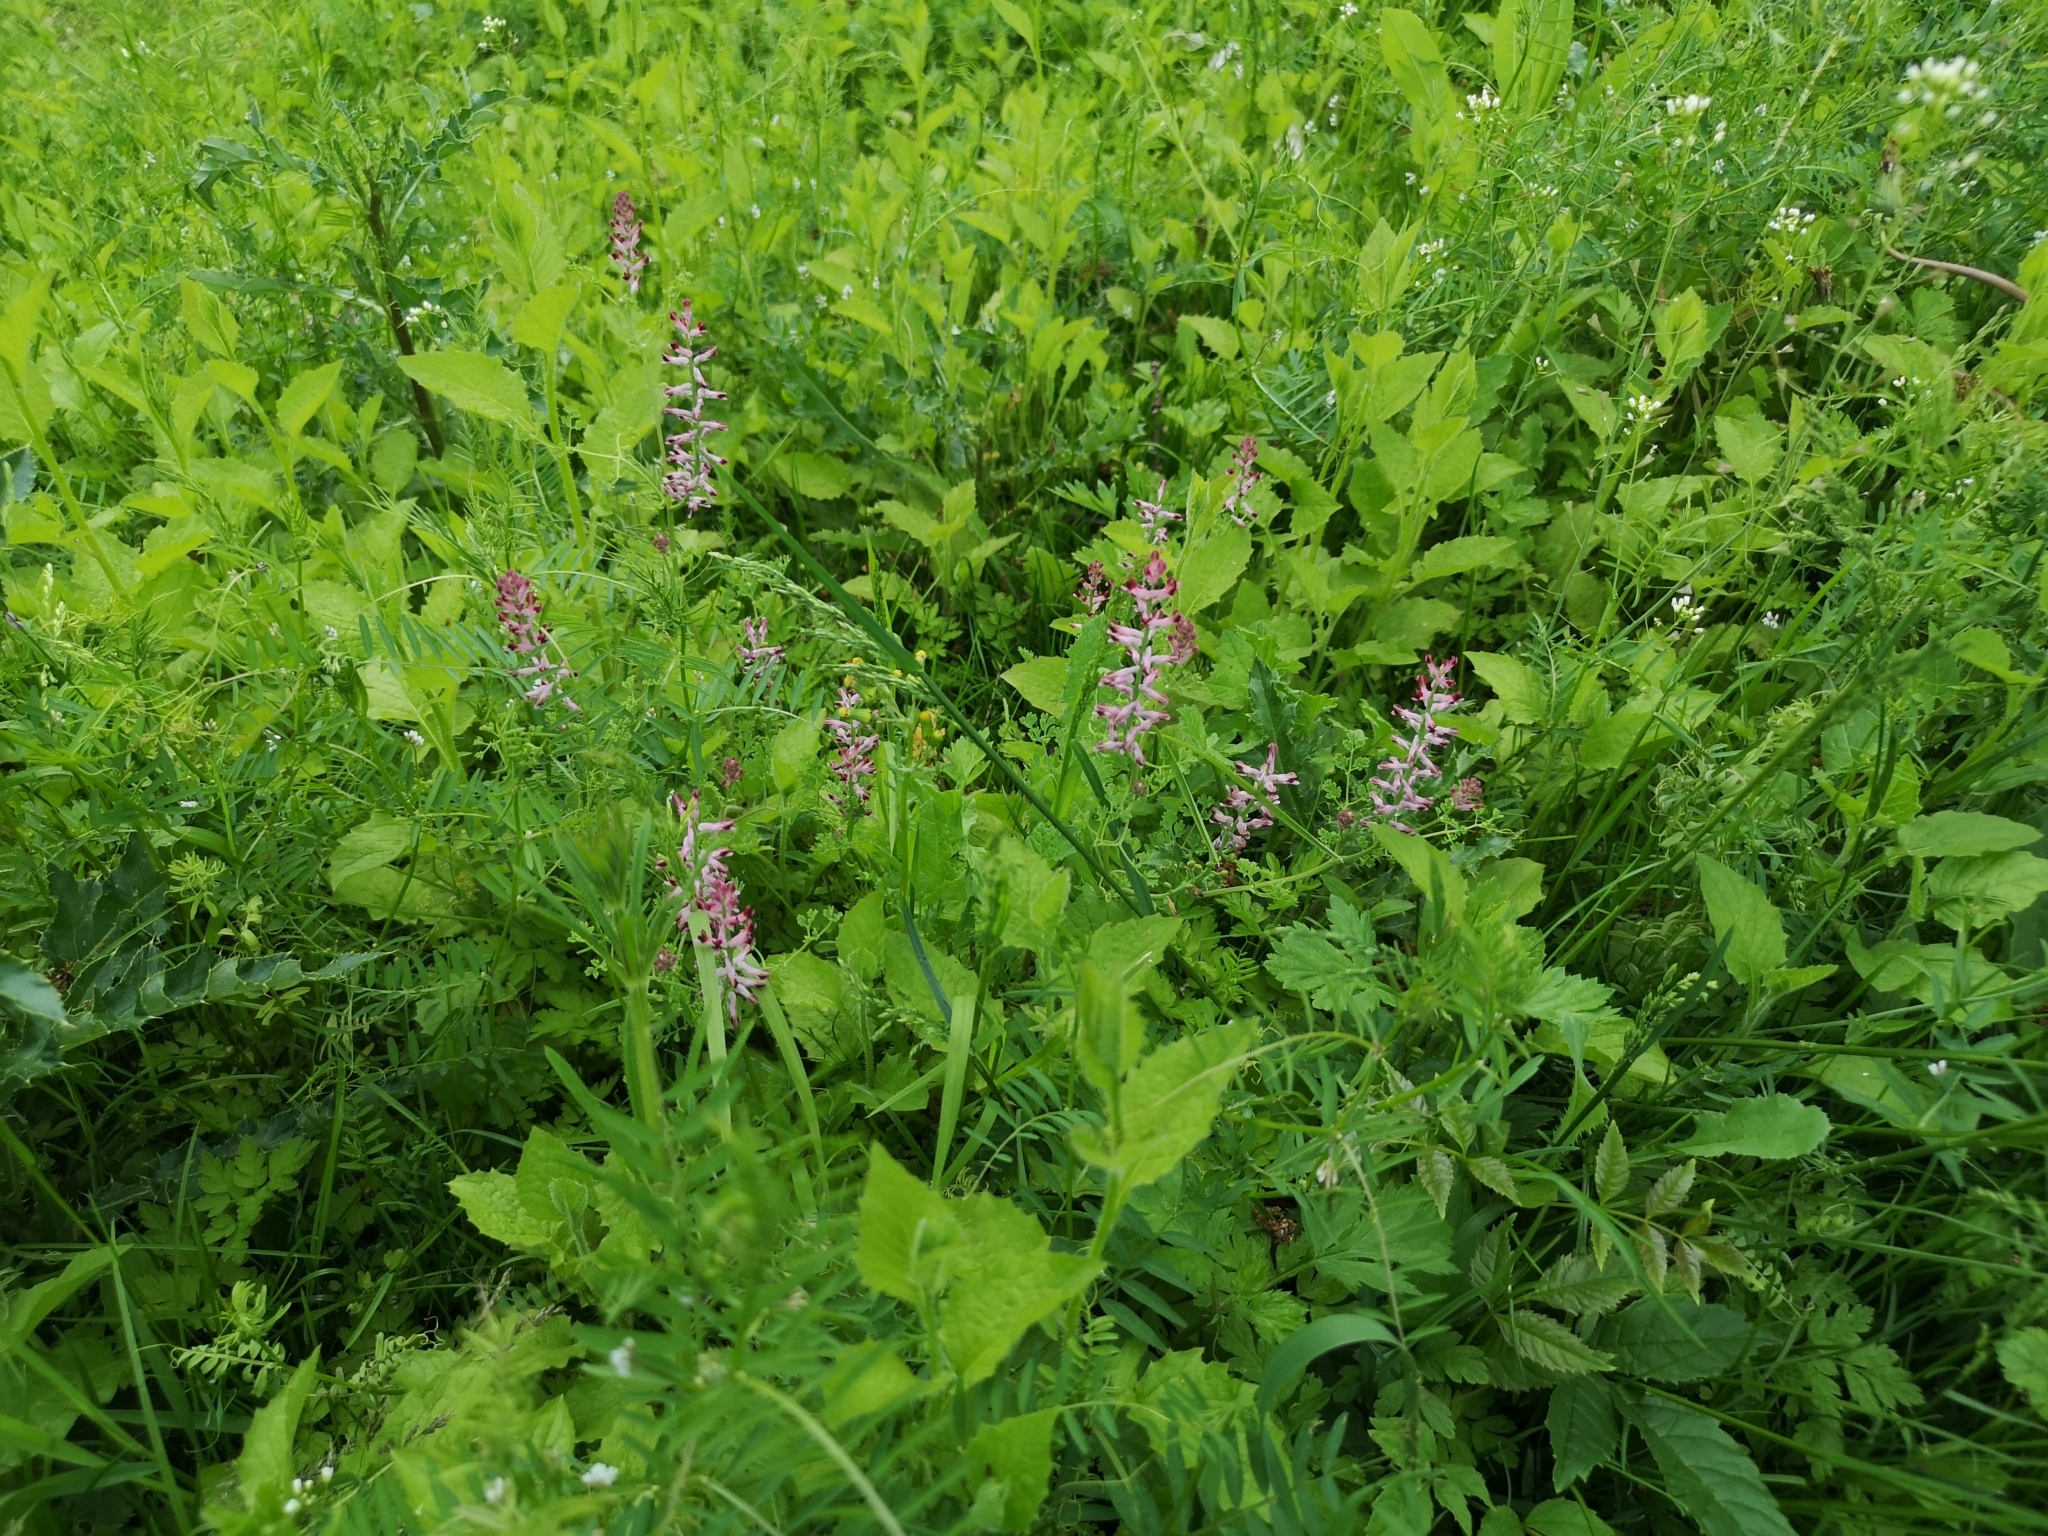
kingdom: Plantae
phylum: Tracheophyta
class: Magnoliopsida
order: Ranunculales
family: Papaveraceae
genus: Fumaria
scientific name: Fumaria officinalis
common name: Common fumitory
